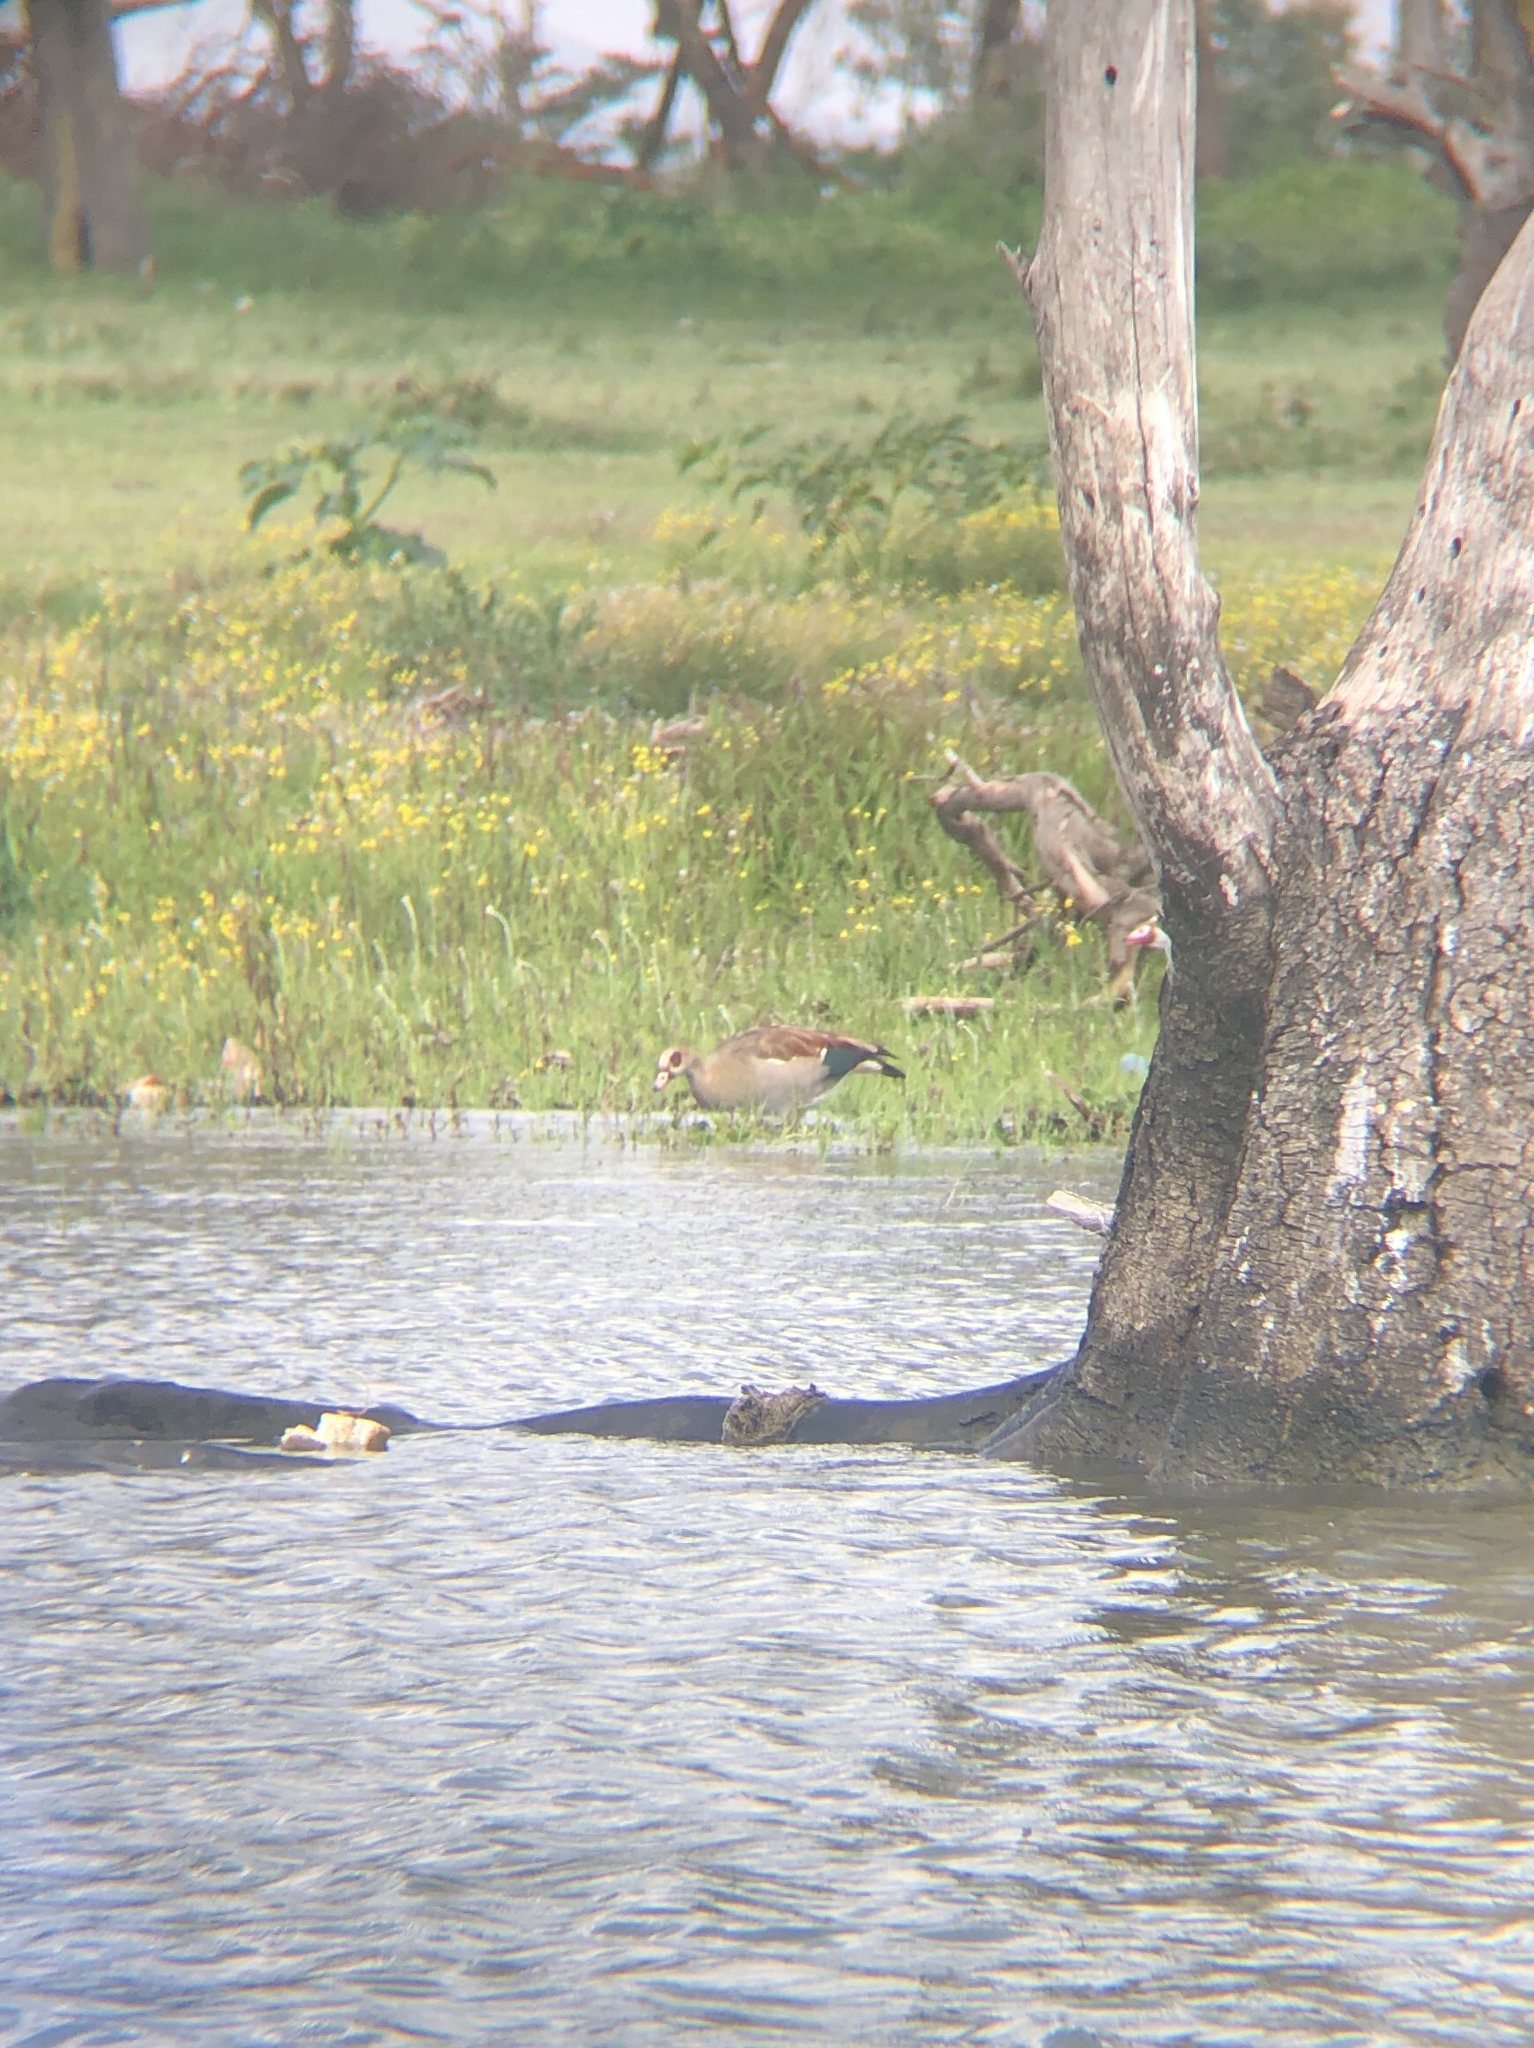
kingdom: Animalia
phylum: Chordata
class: Aves
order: Anseriformes
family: Anatidae
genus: Alopochen
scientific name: Alopochen aegyptiaca
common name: Egyptian goose
